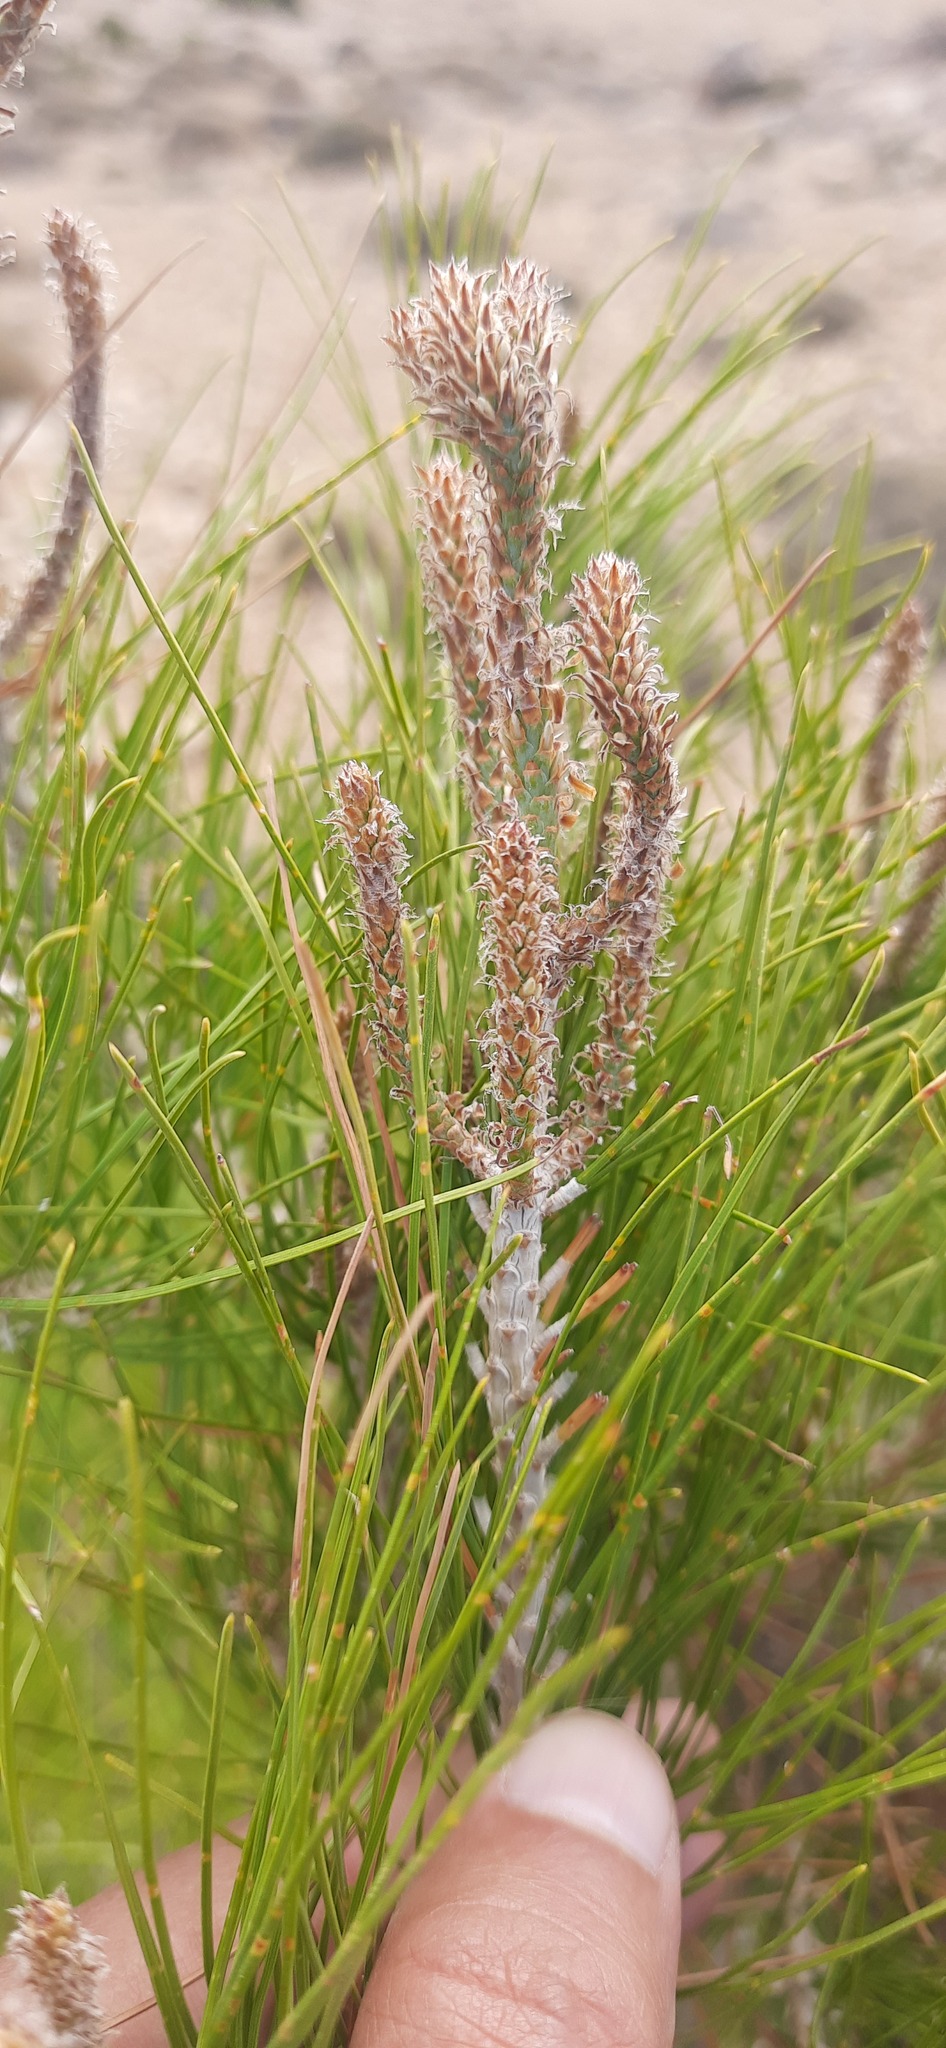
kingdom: Plantae
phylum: Tracheophyta
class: Pinopsida
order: Pinales
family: Pinaceae
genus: Pinus
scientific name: Pinus halepensis
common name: Aleppo pine
